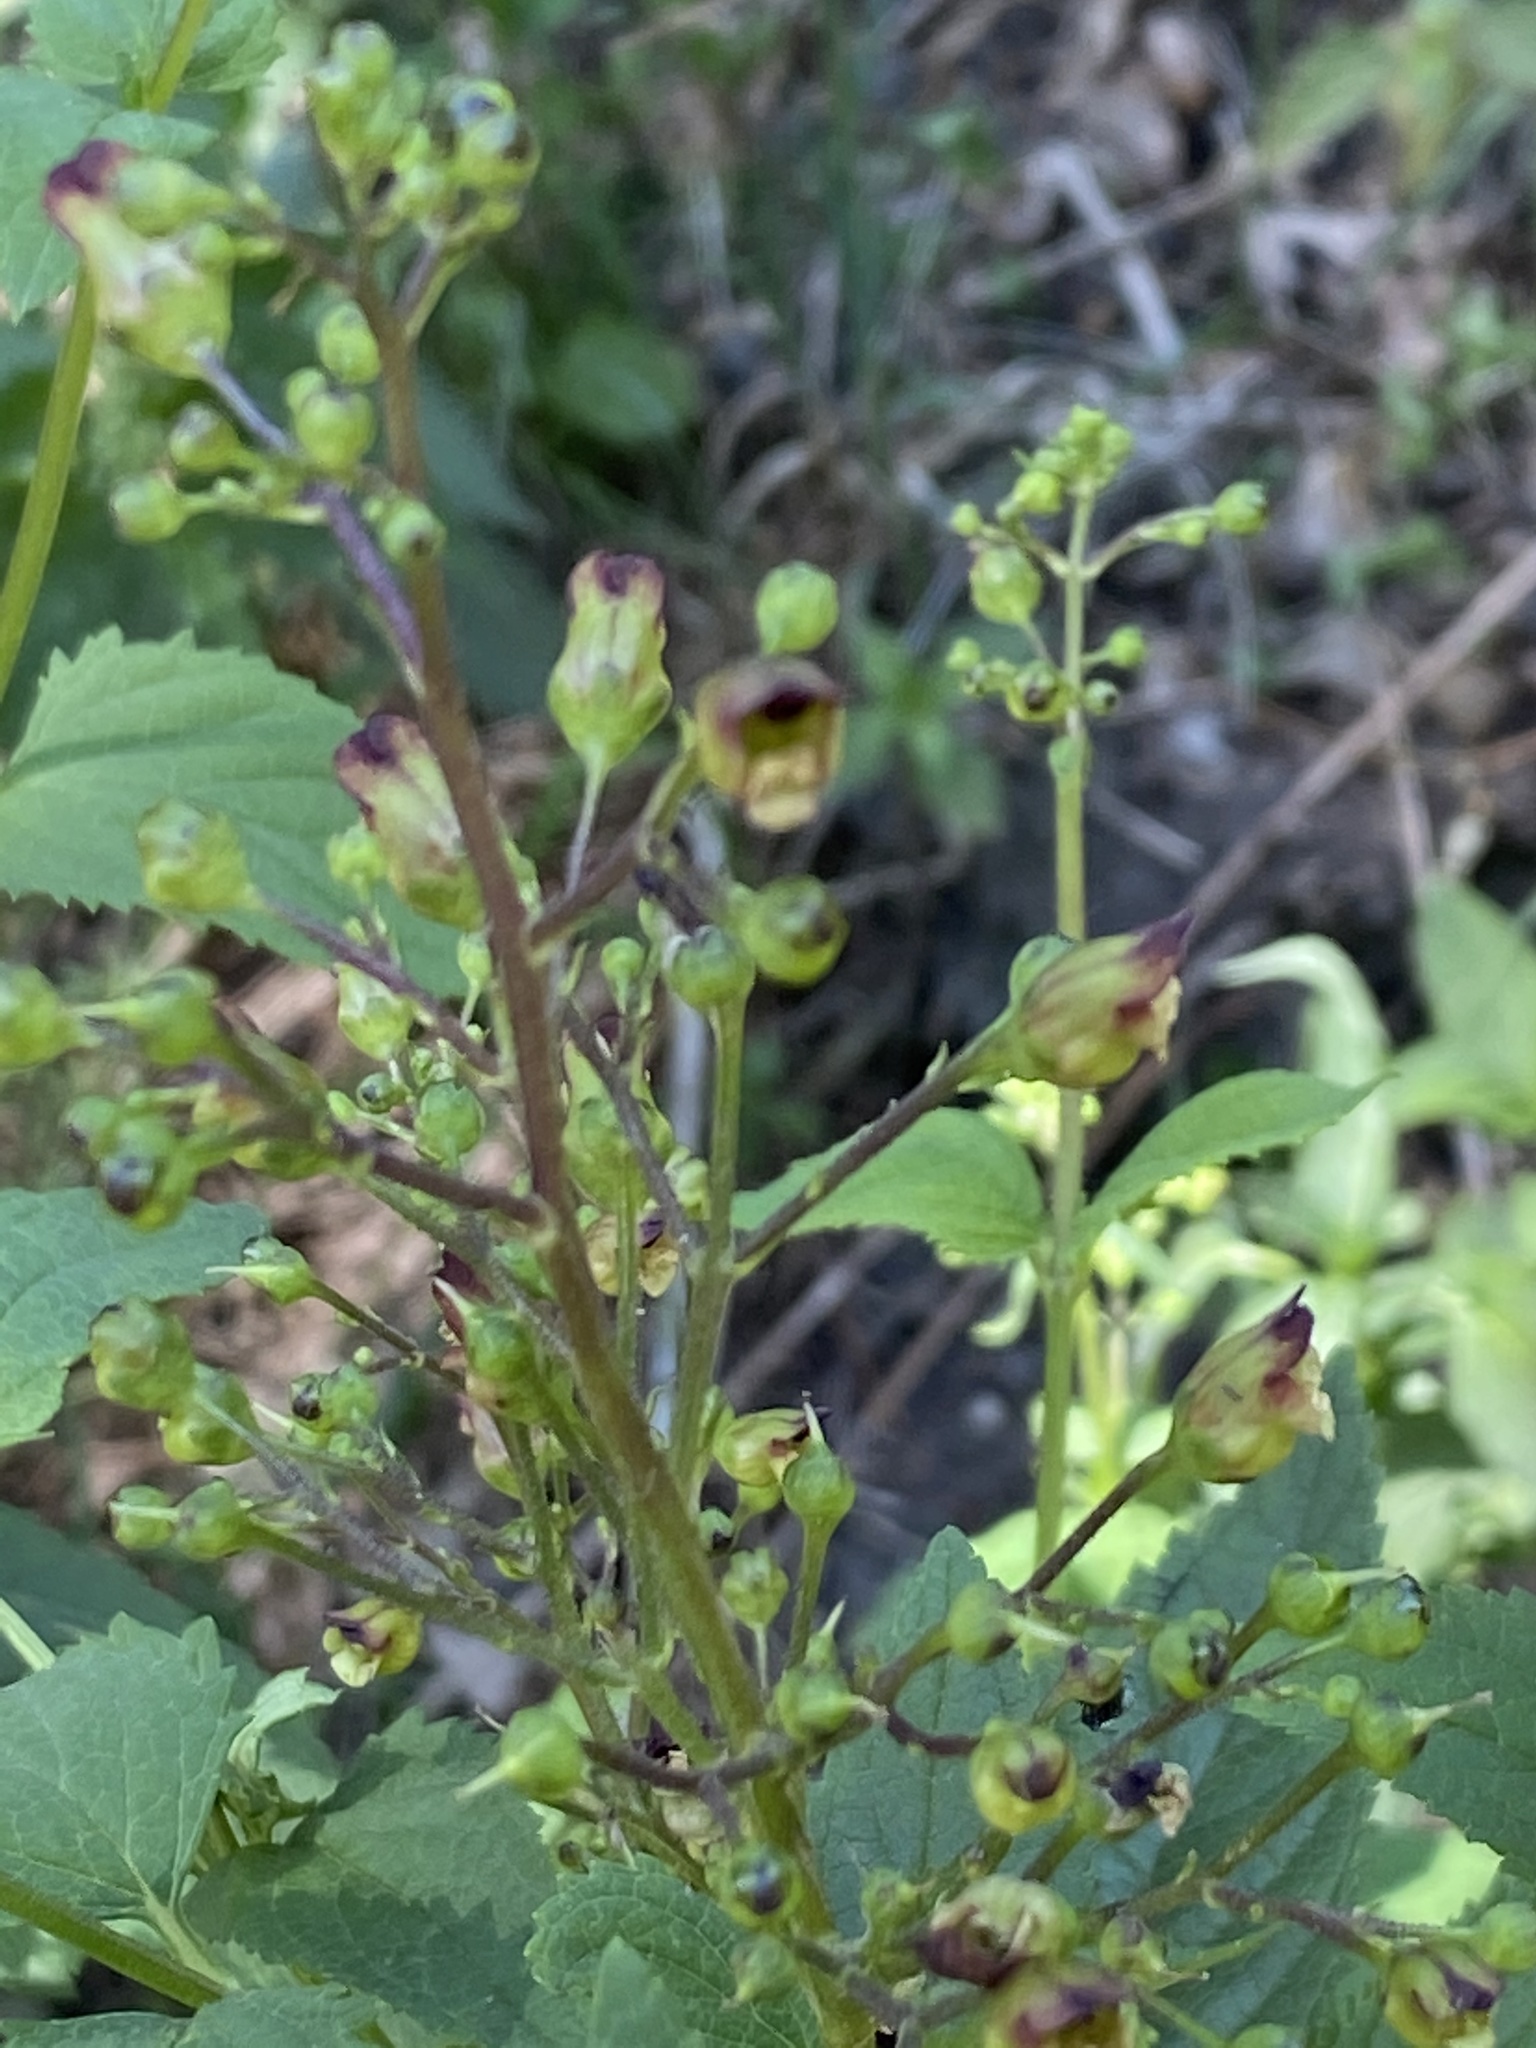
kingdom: Plantae
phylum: Tracheophyta
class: Magnoliopsida
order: Lamiales
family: Scrophulariaceae
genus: Scrophularia
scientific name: Scrophularia nodosa
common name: Common figwort
